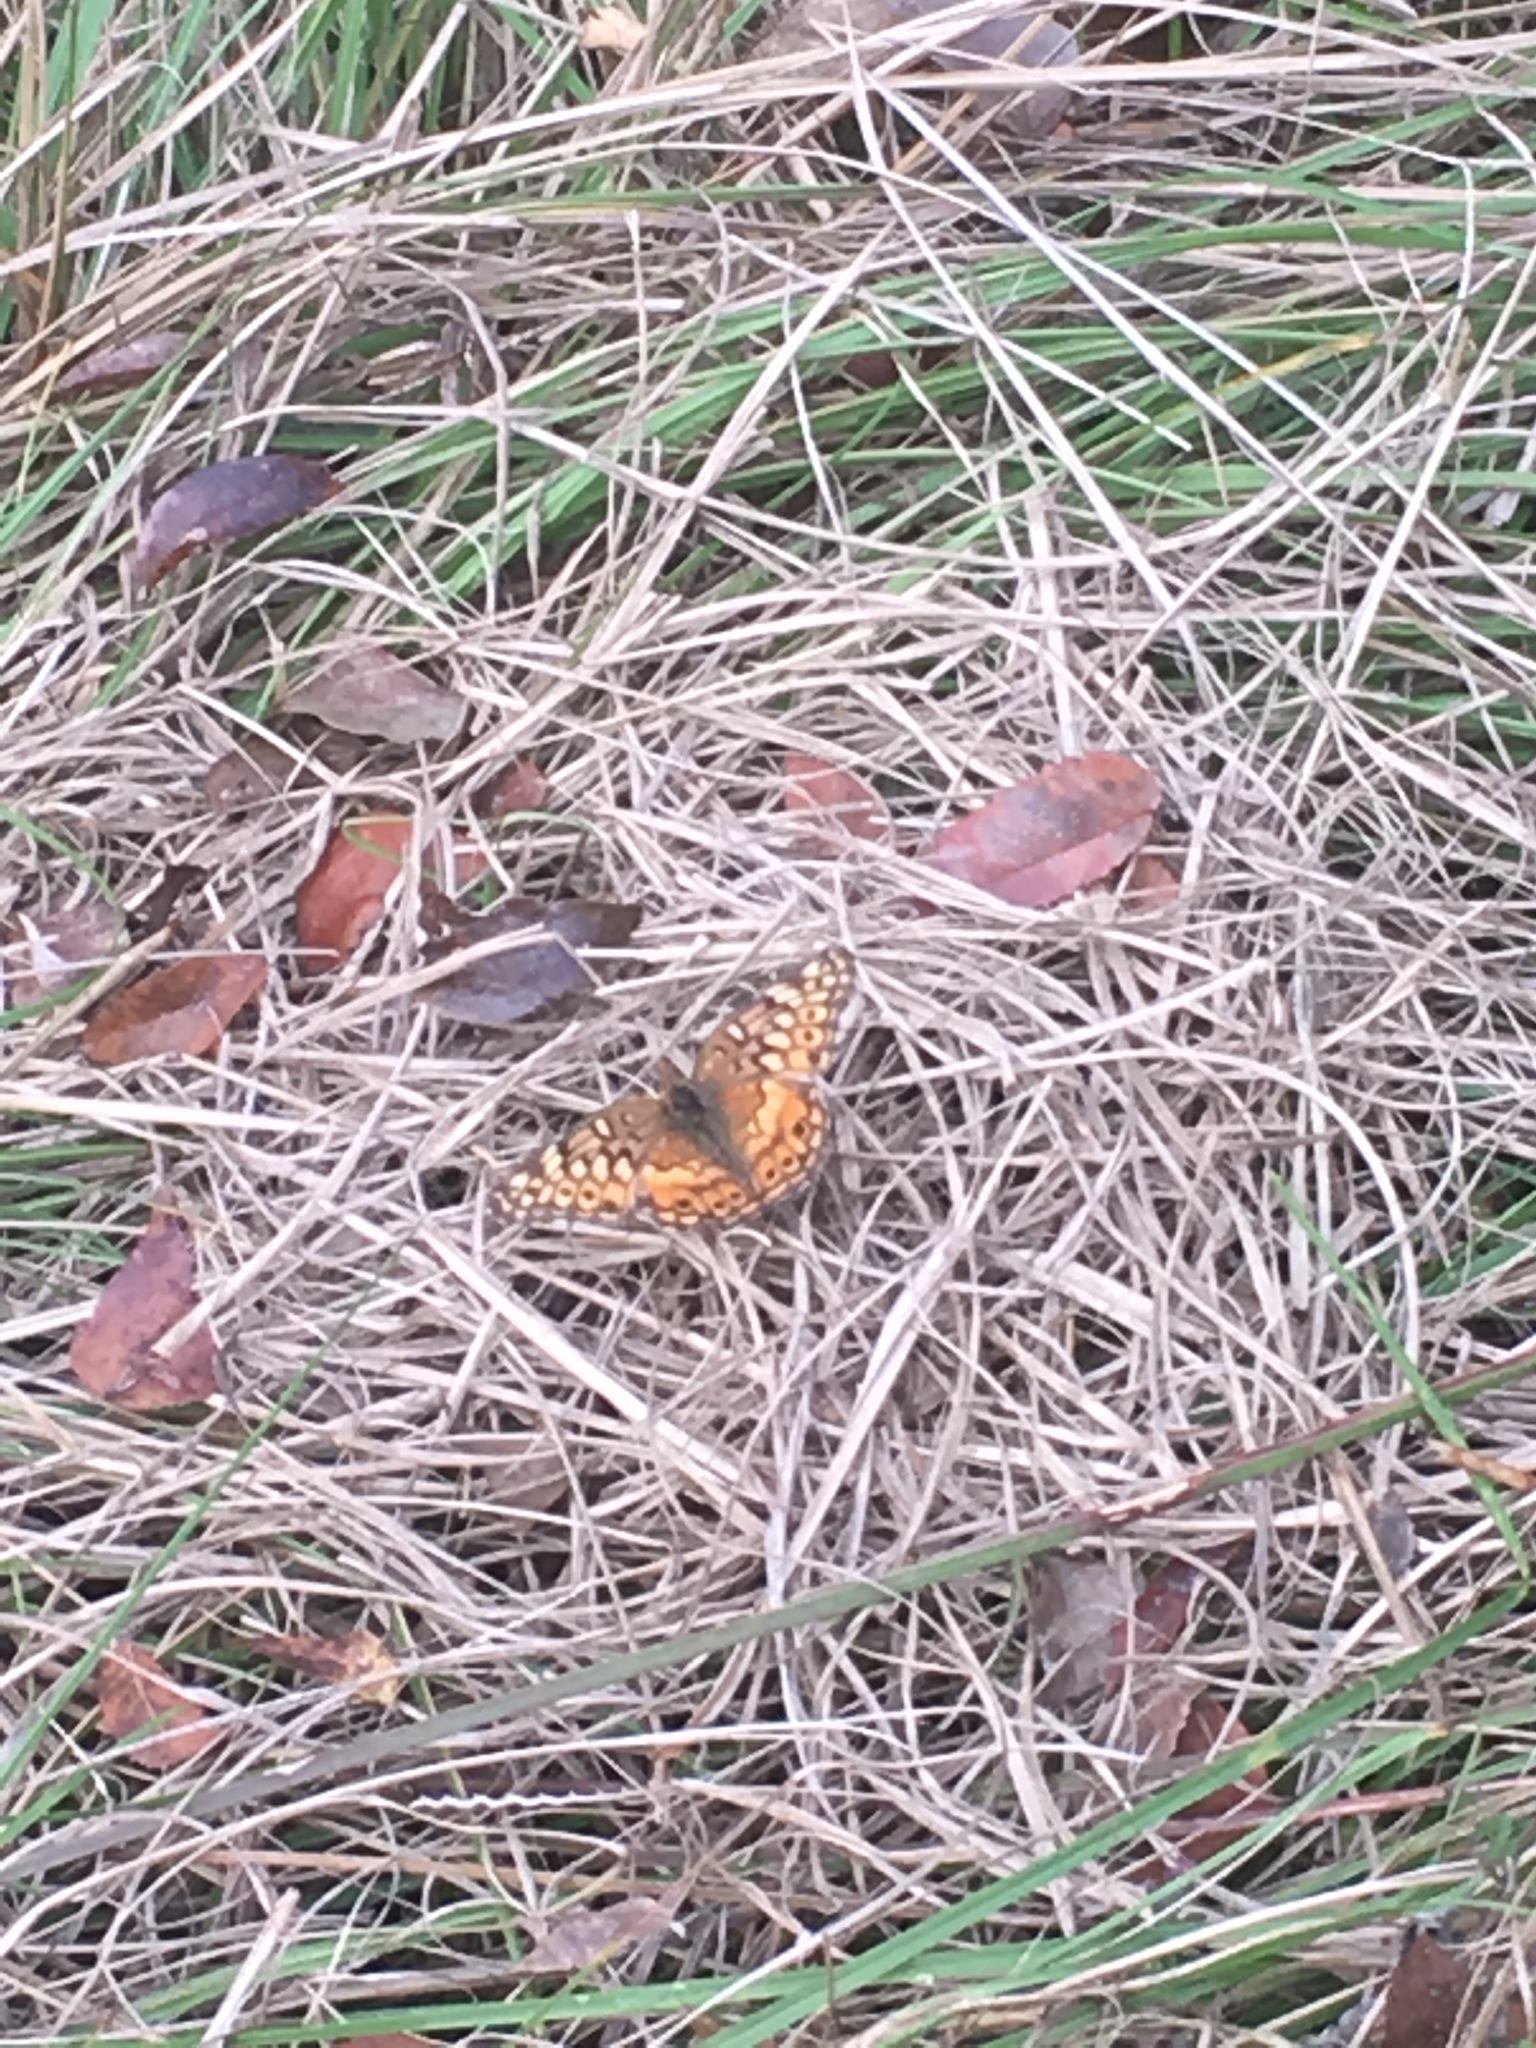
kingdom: Animalia
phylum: Arthropoda
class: Insecta
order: Lepidoptera
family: Nymphalidae
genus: Euptoieta
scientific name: Euptoieta claudia
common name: Variegated fritillary
